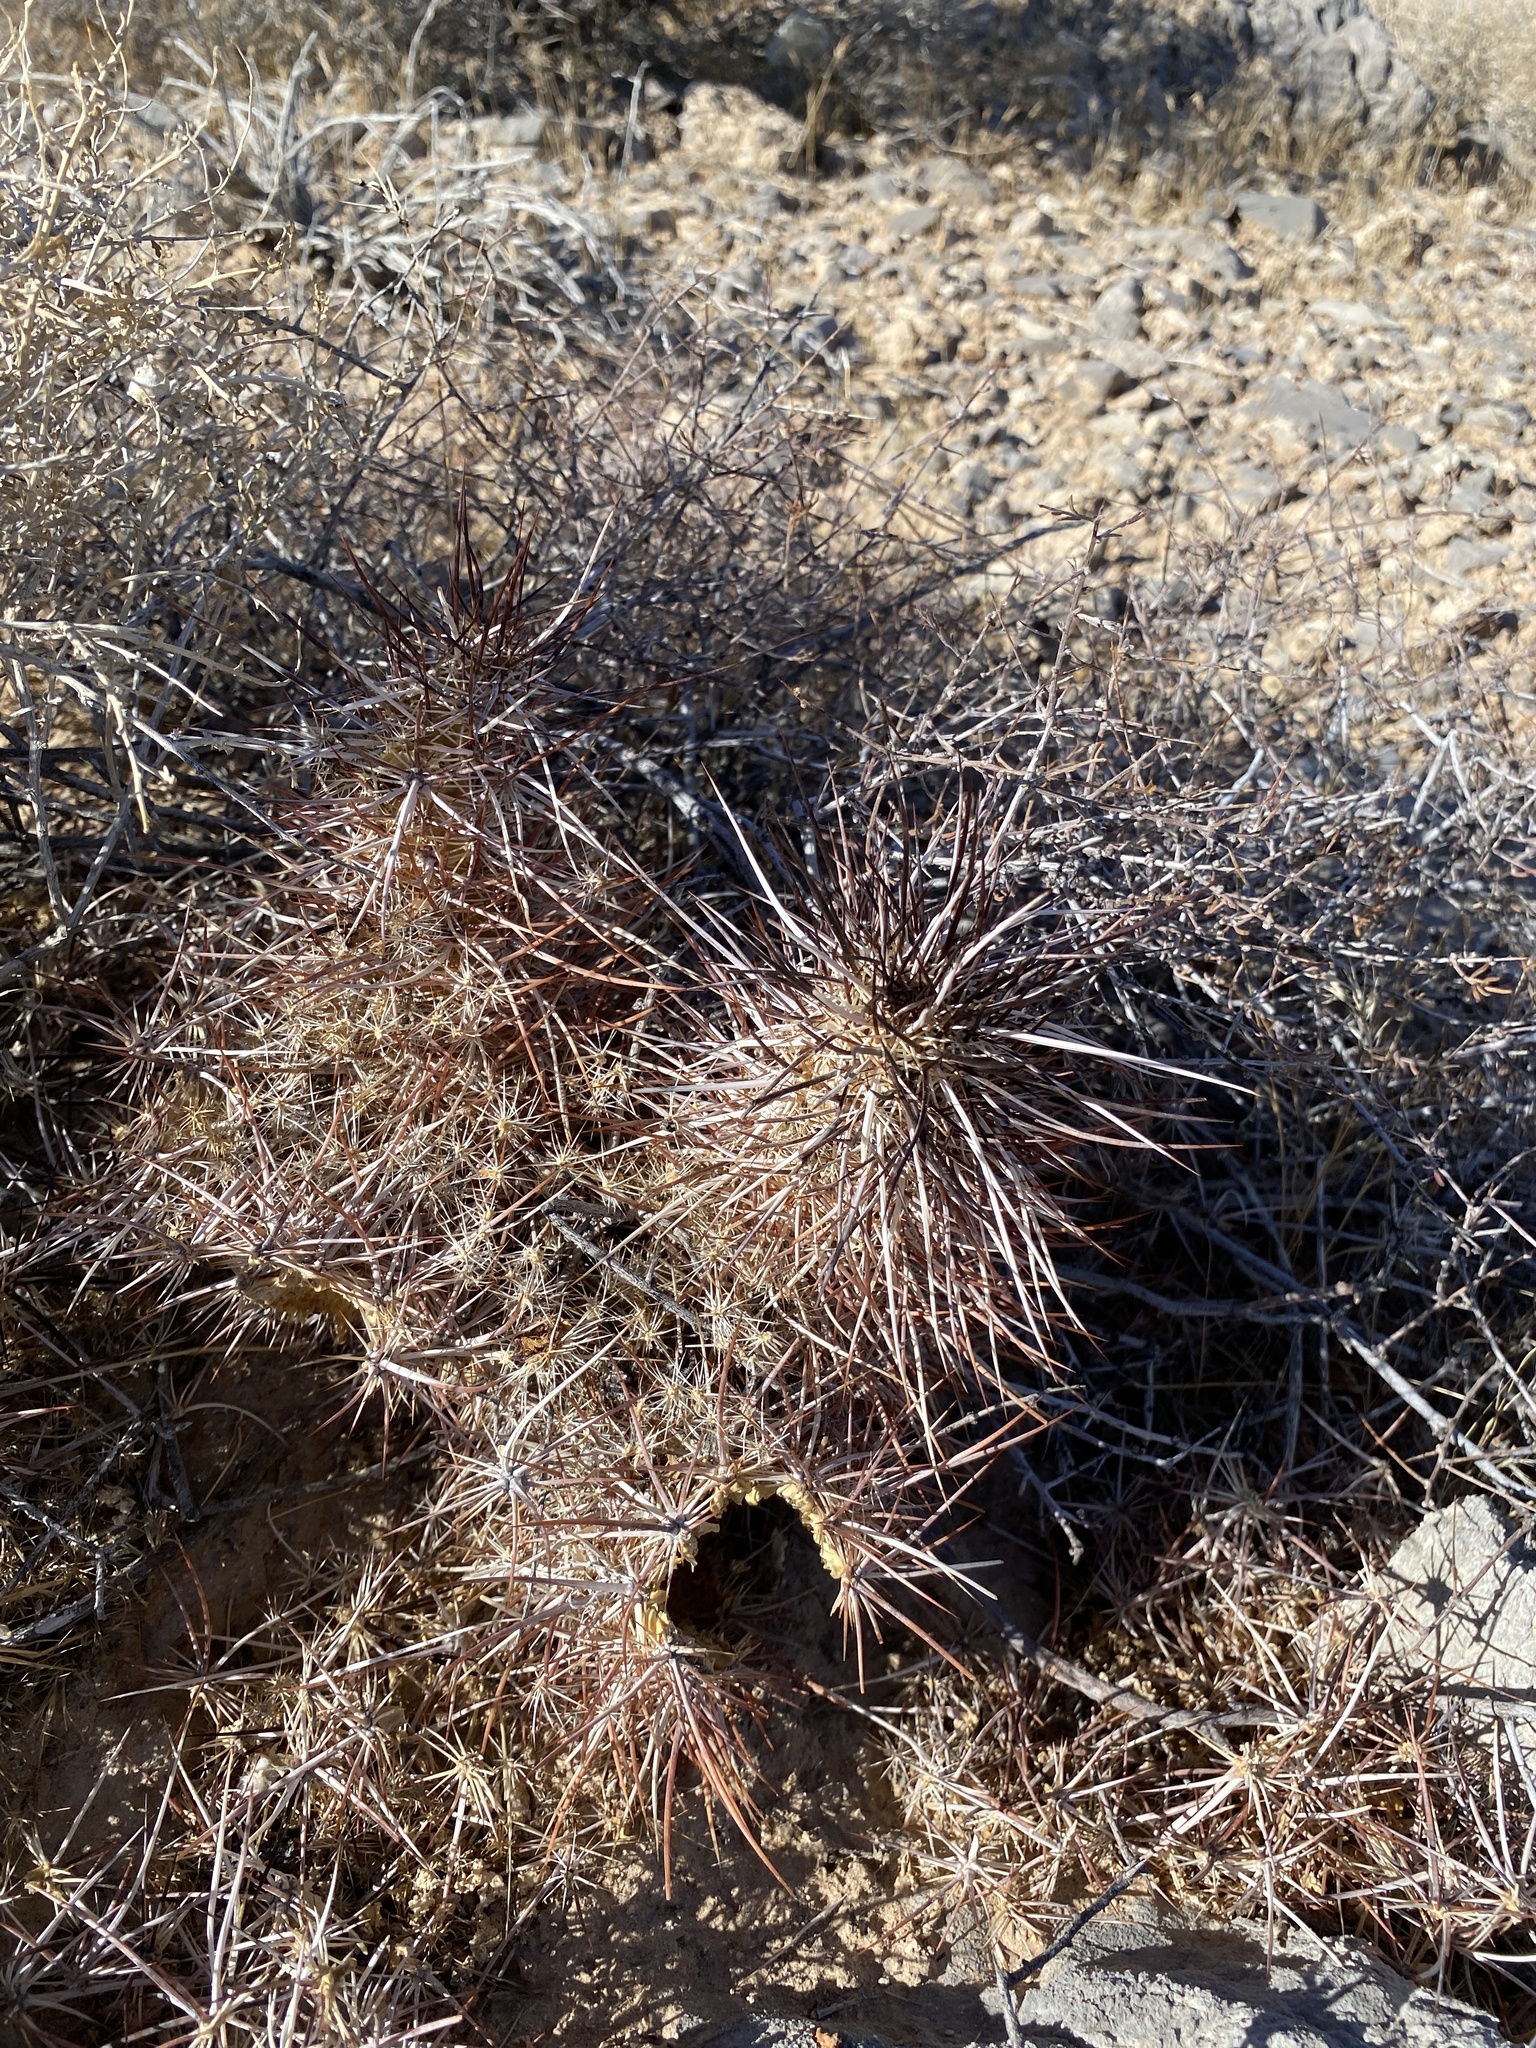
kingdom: Plantae
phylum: Tracheophyta
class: Magnoliopsida
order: Caryophyllales
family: Cactaceae
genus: Echinocereus
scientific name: Echinocereus engelmannii
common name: Engelmann's hedgehog cactus
